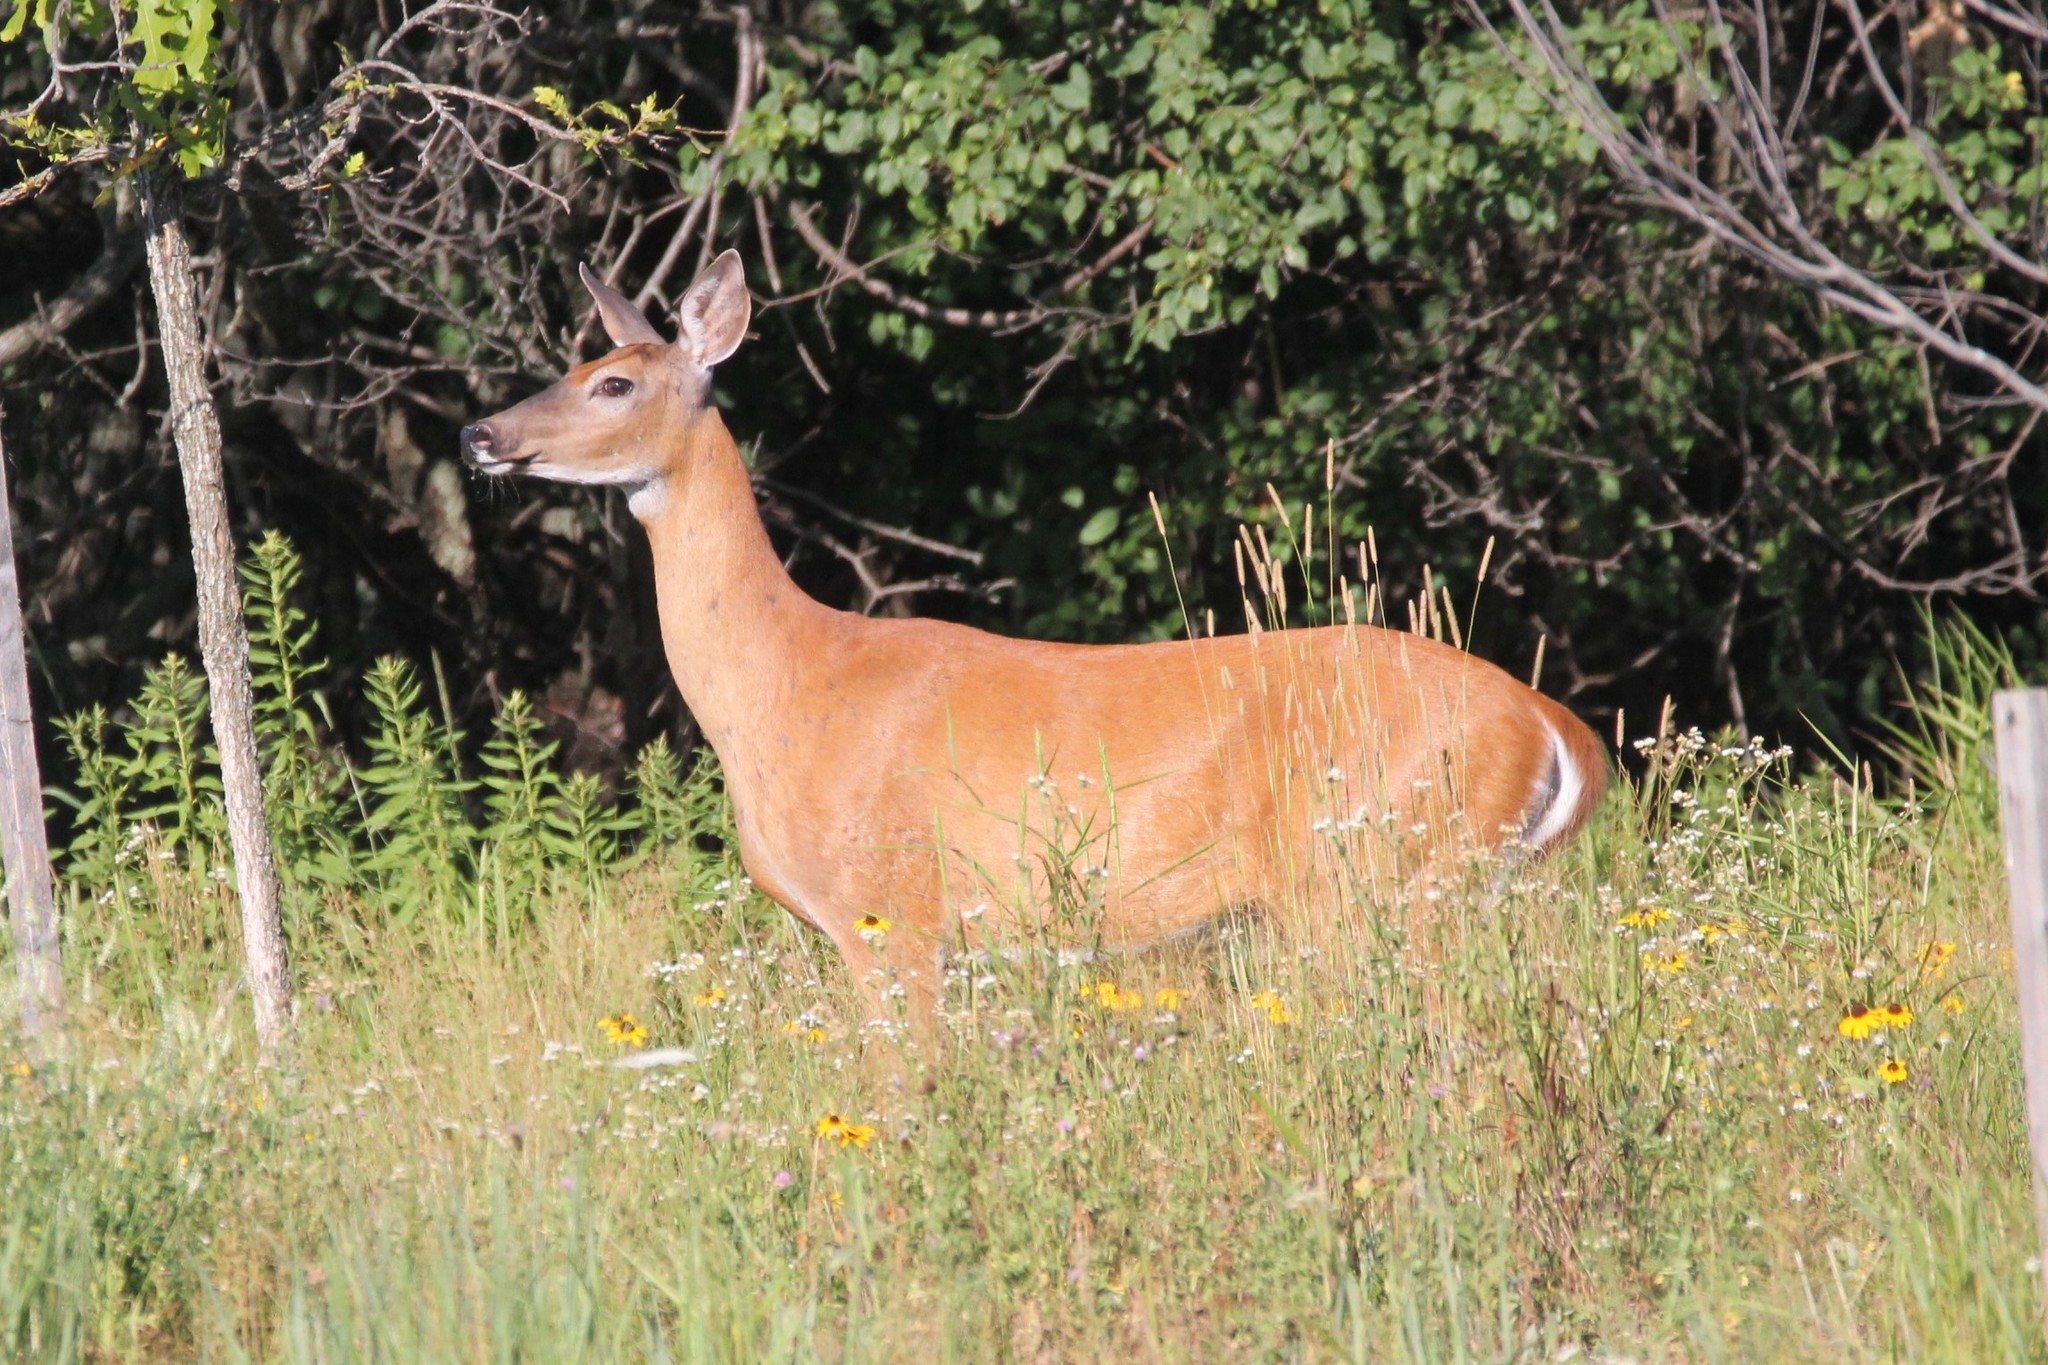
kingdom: Animalia
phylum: Chordata
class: Mammalia
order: Artiodactyla
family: Cervidae
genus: Odocoileus
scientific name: Odocoileus virginianus
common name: White-tailed deer
